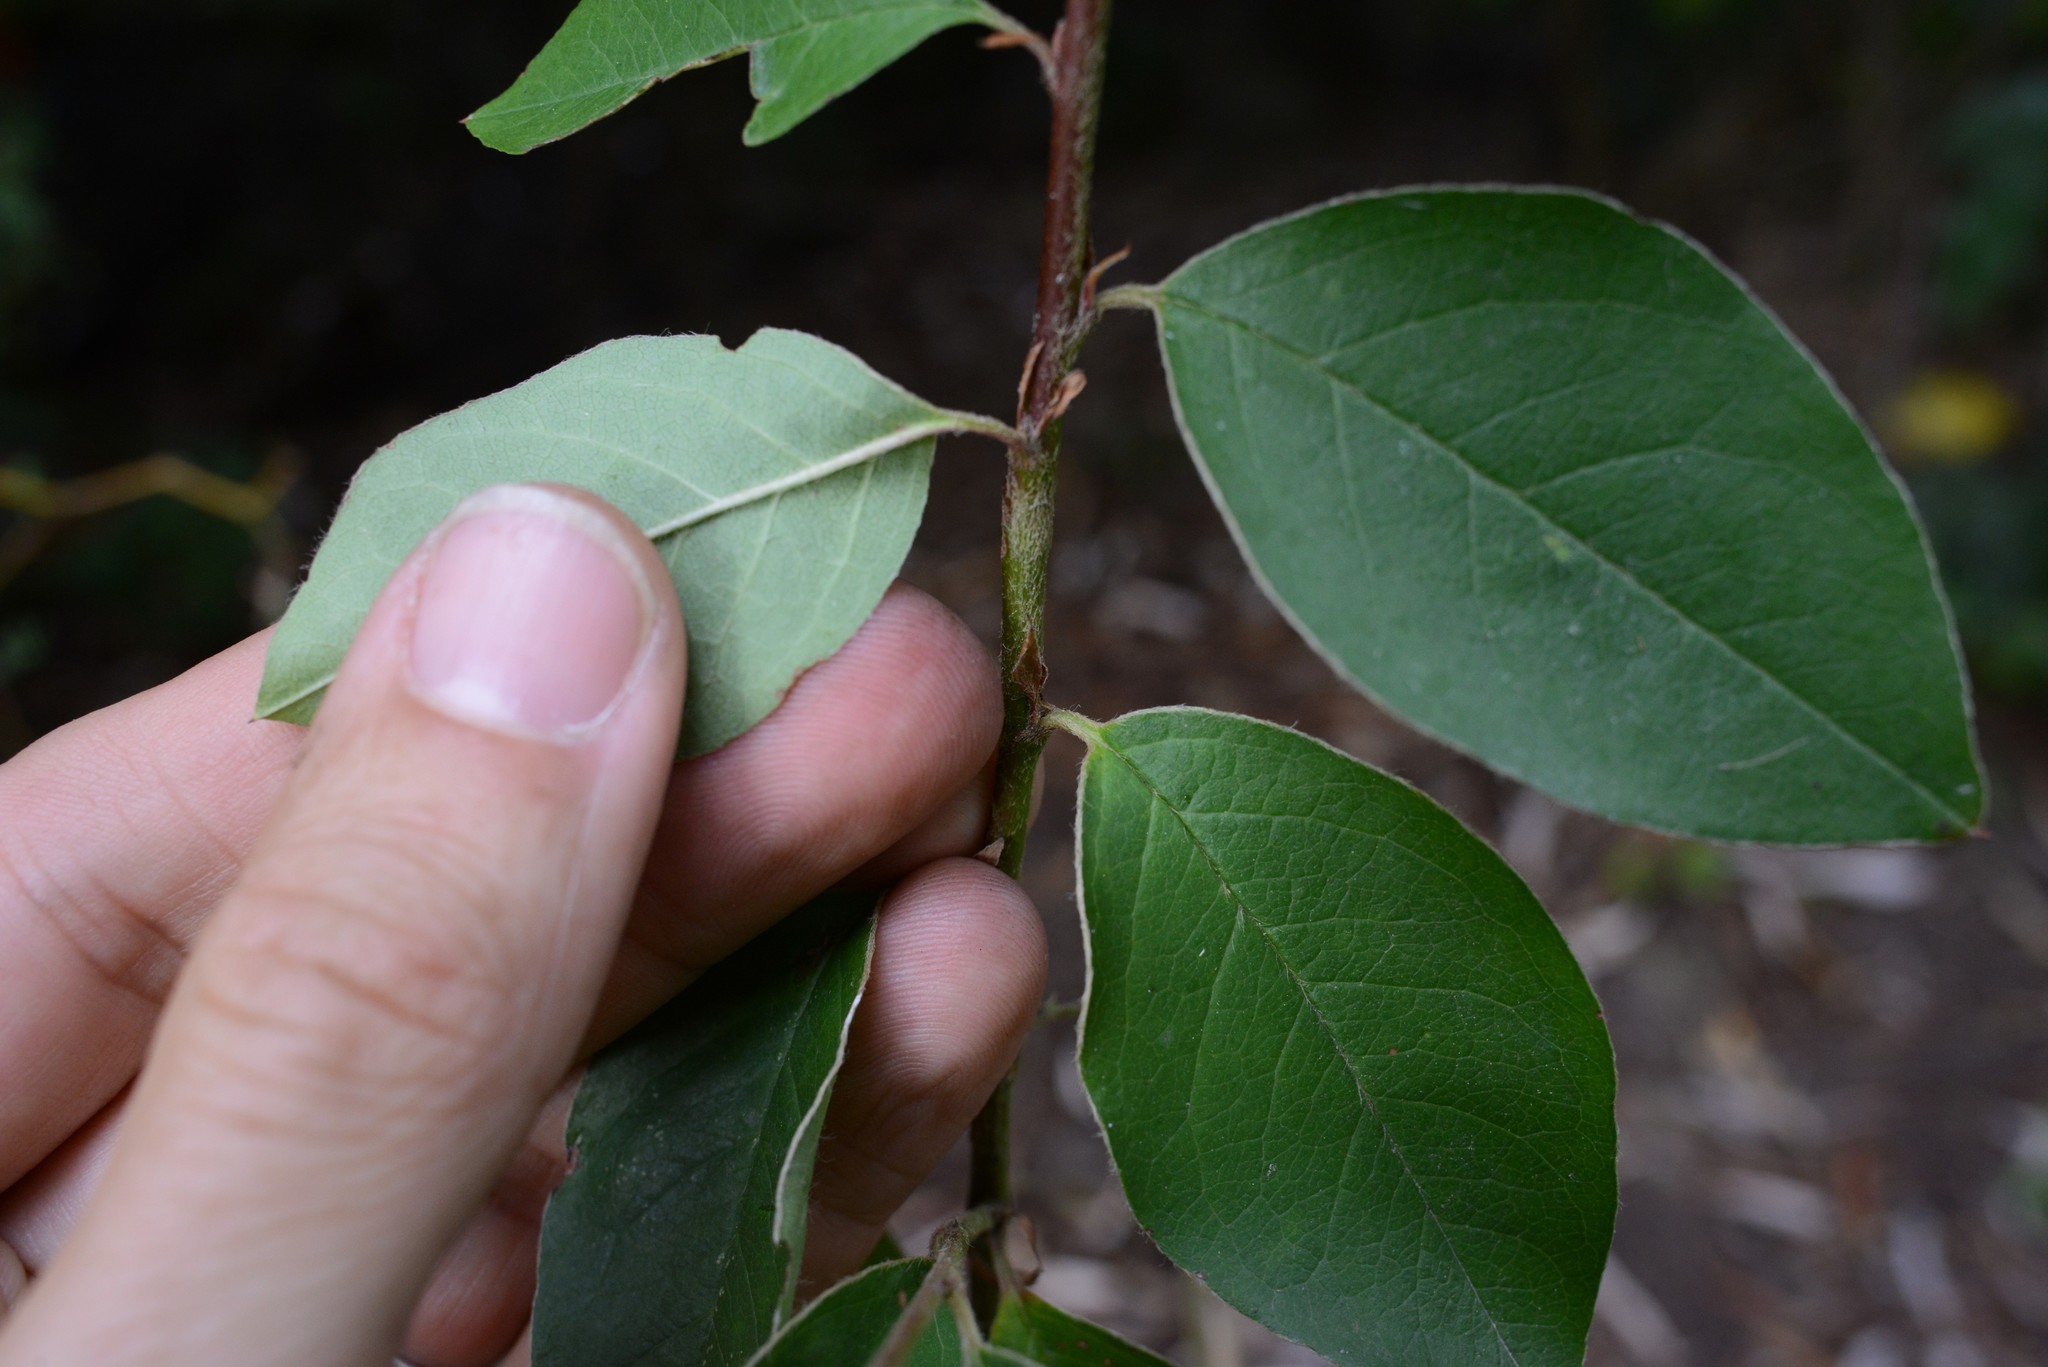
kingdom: Plantae
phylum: Tracheophyta
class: Magnoliopsida
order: Rosales
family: Rosaceae
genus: Cotoneaster
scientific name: Cotoneaster frigidus
